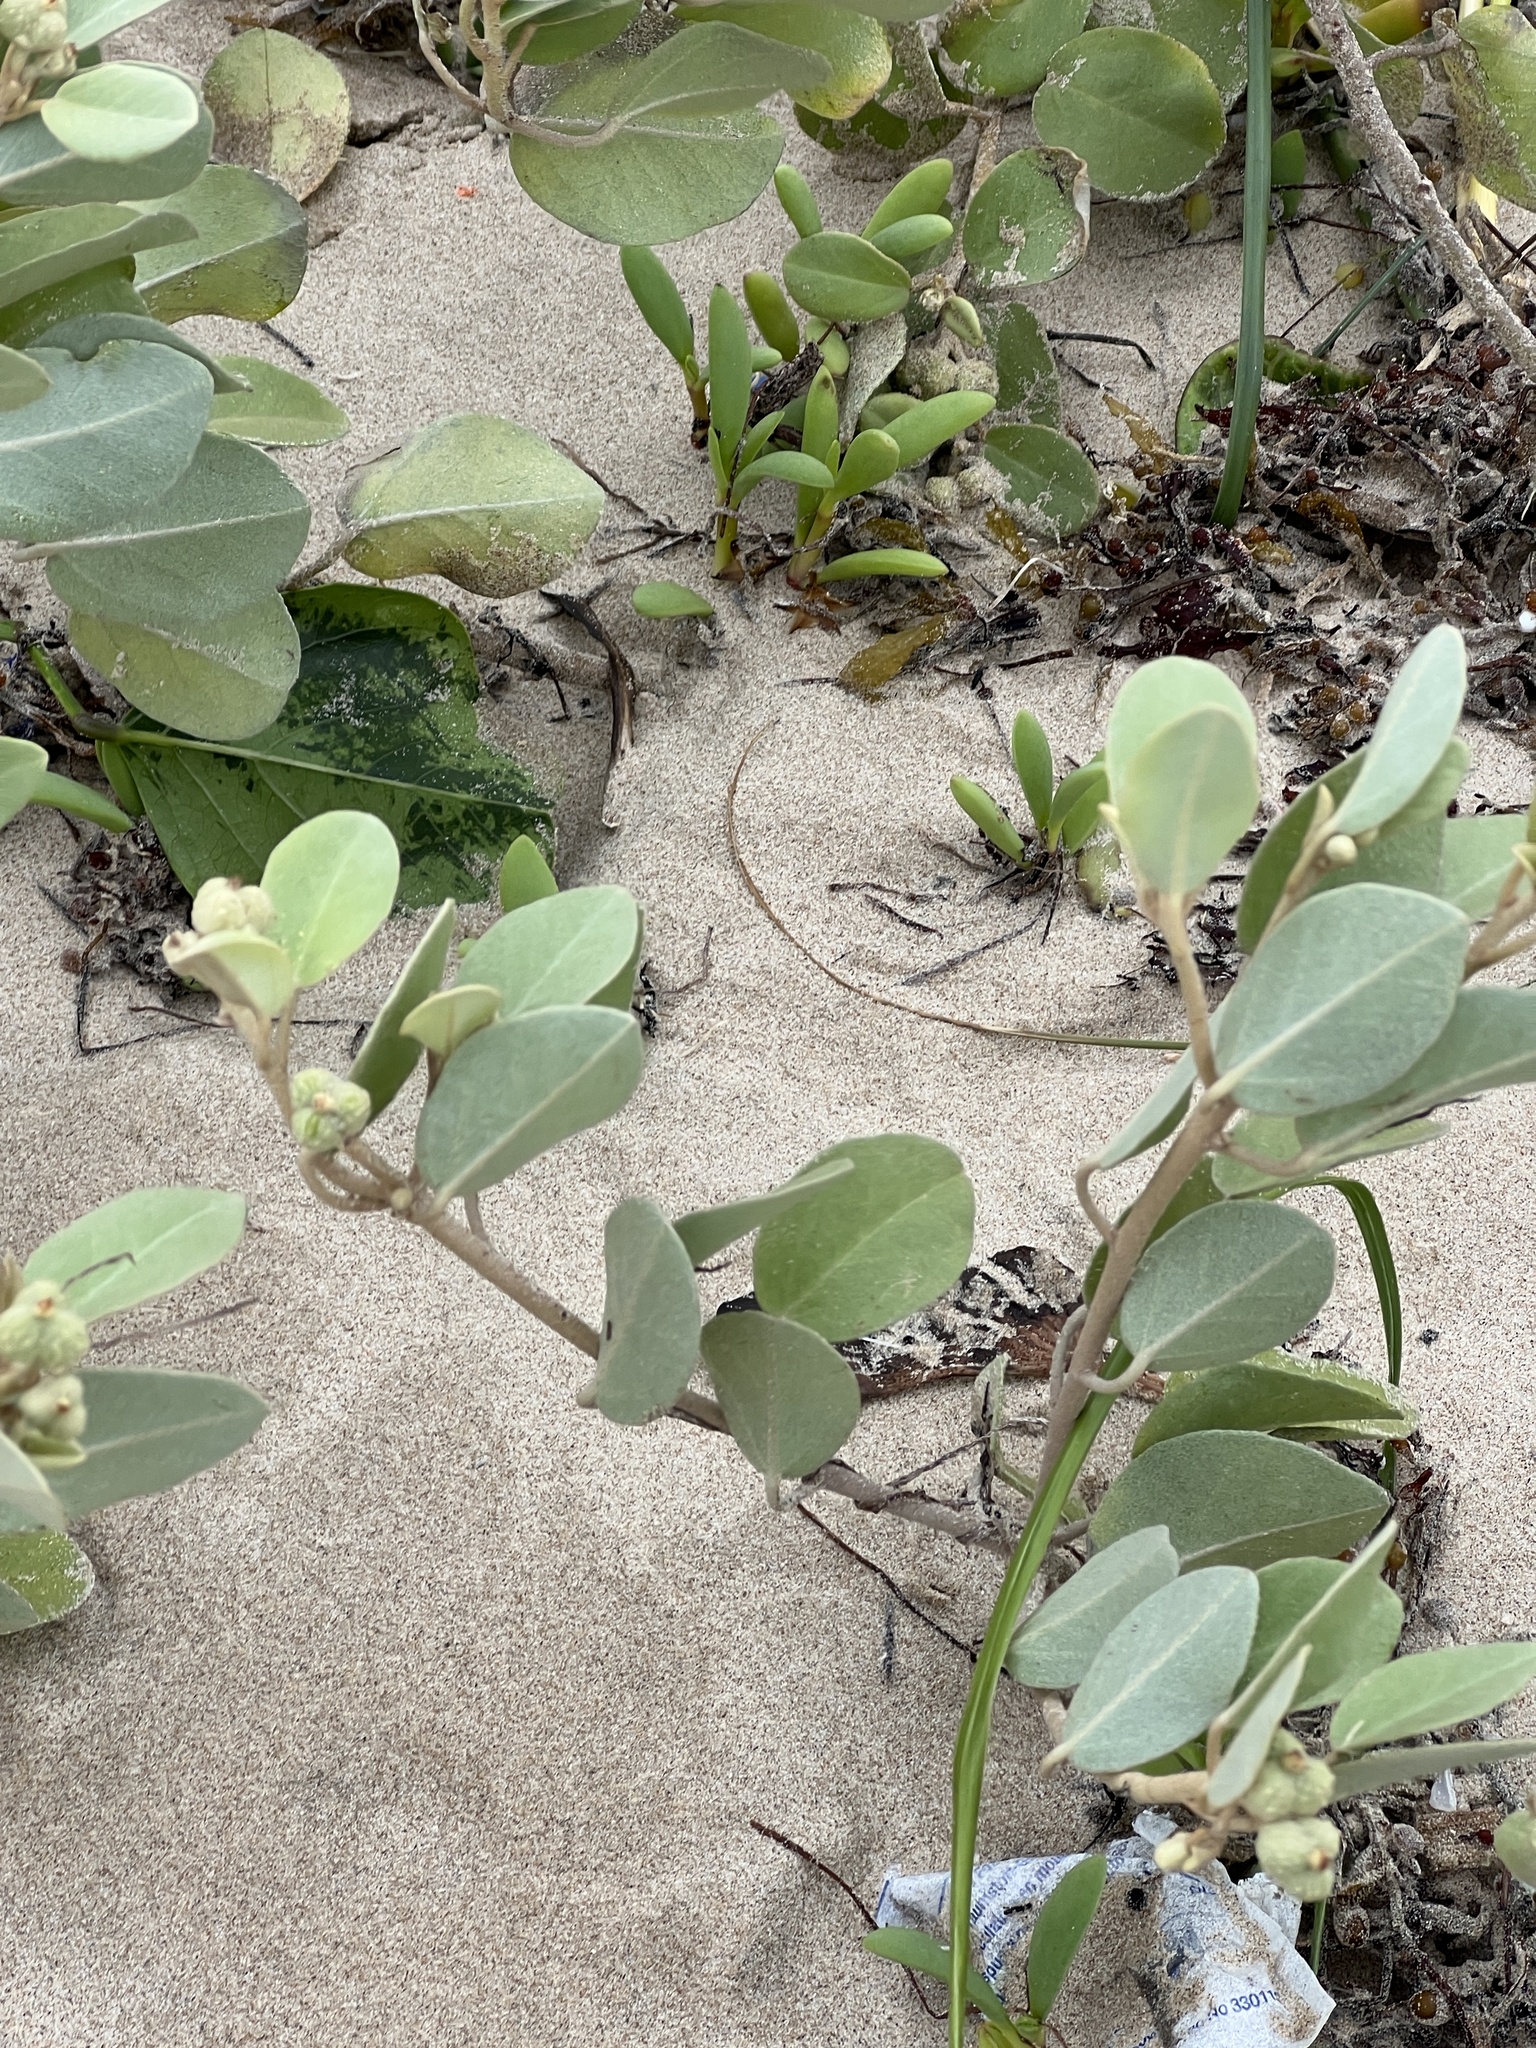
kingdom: Plantae
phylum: Tracheophyta
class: Magnoliopsida
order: Malpighiales
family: Euphorbiaceae
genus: Croton
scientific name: Croton punctatus
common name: Beach-tea
